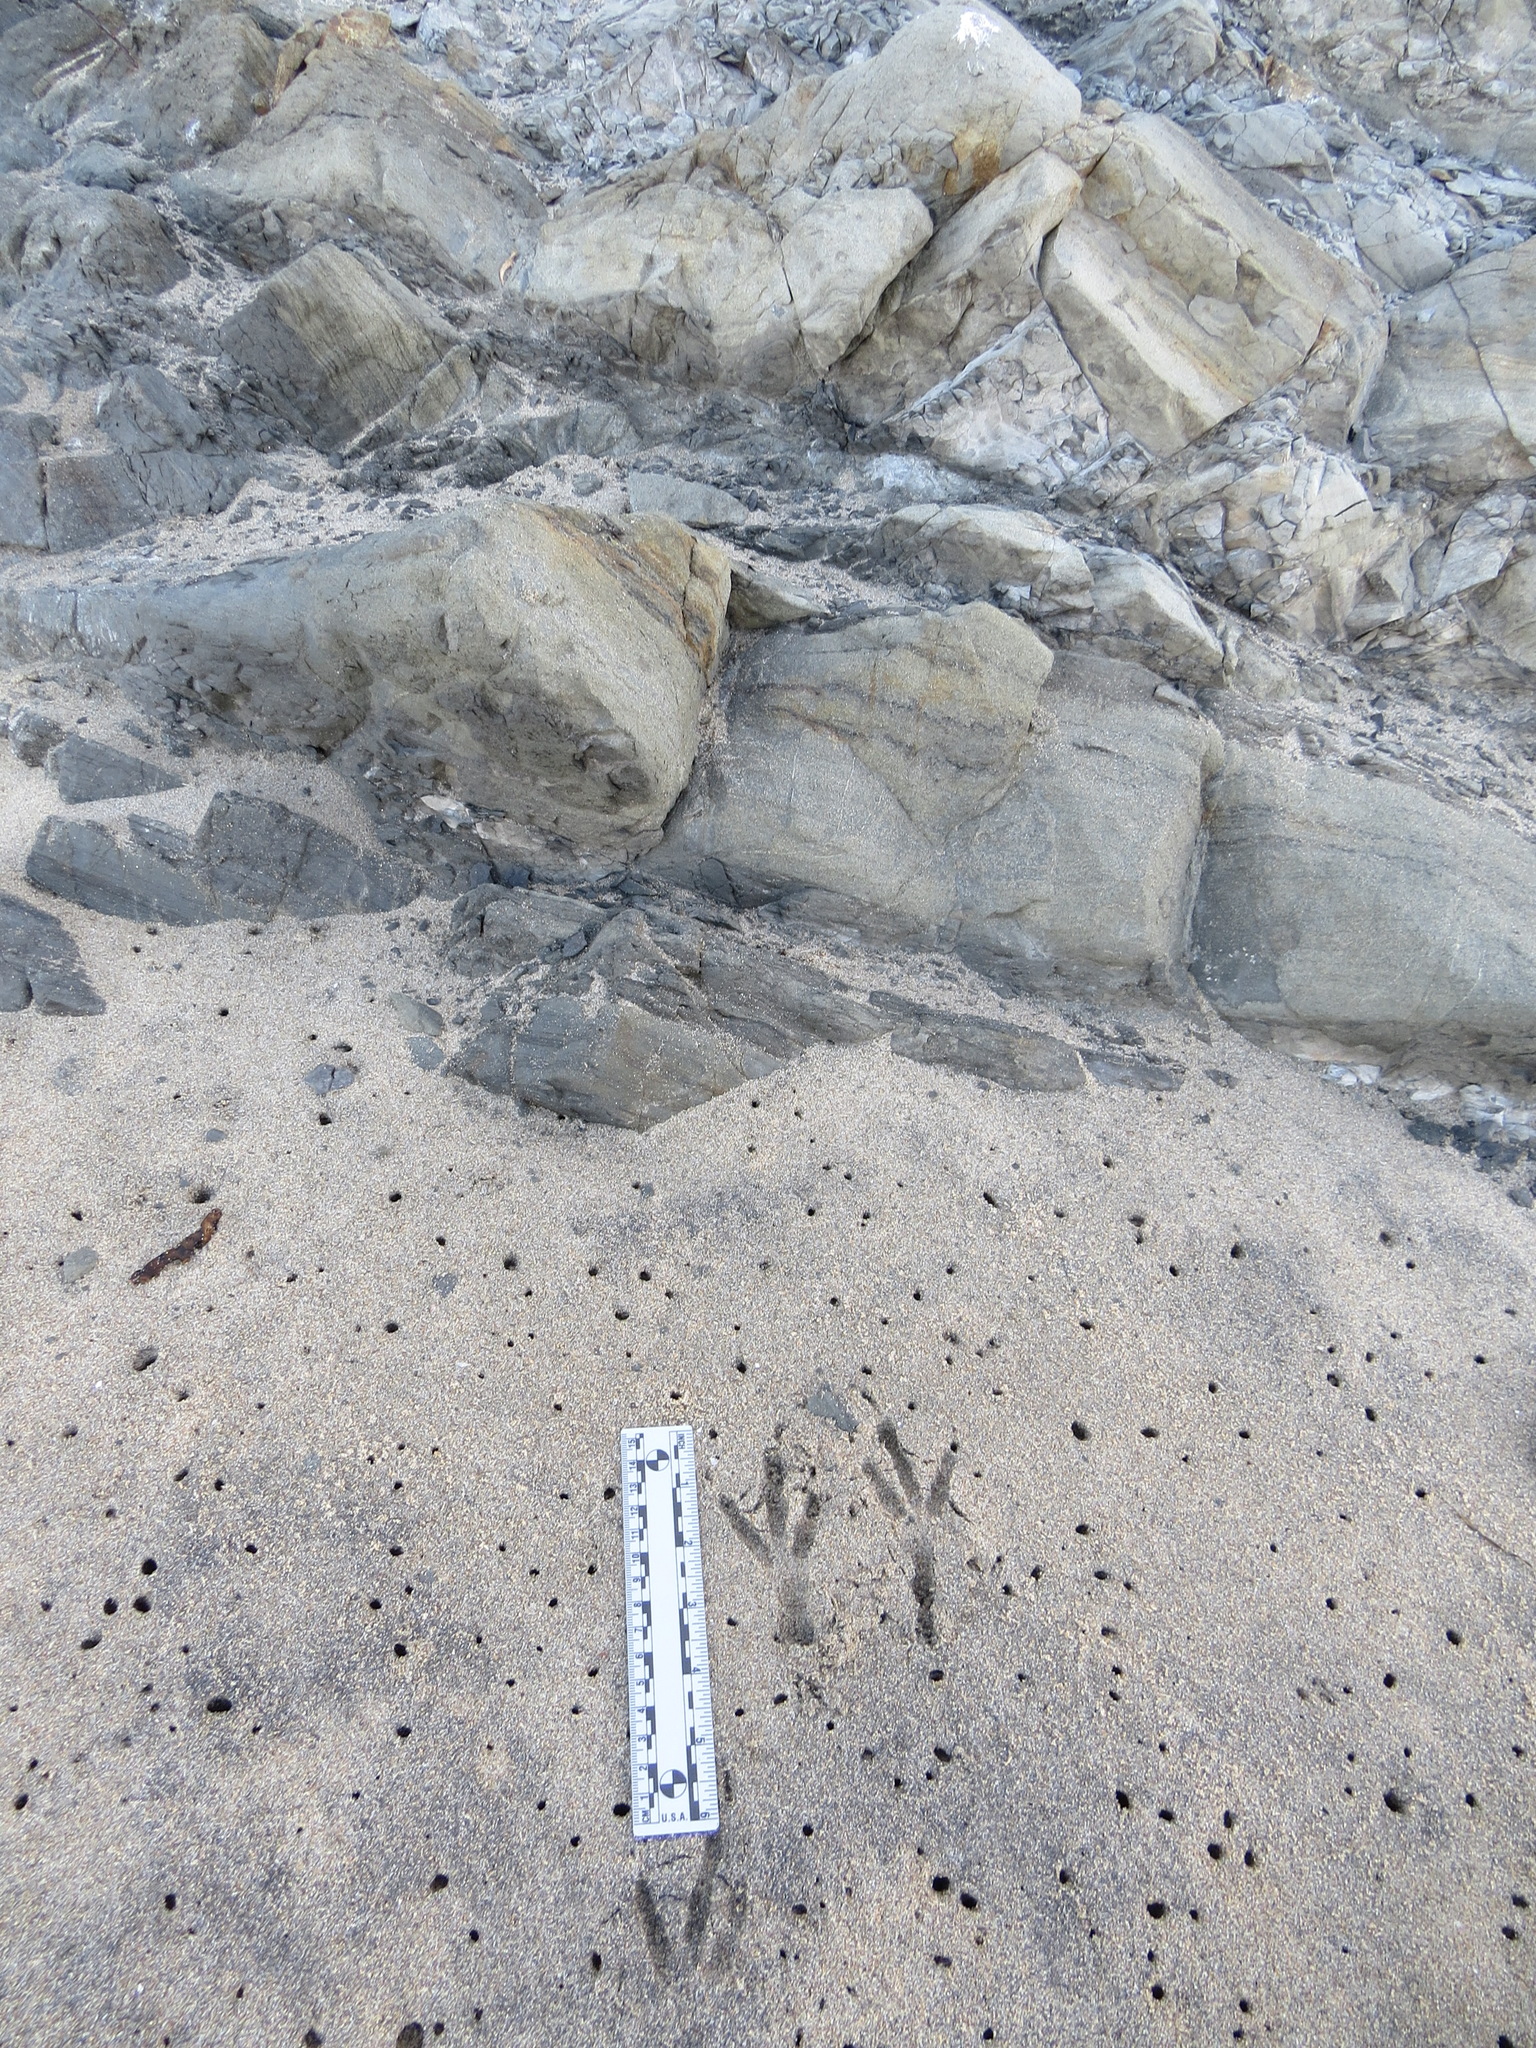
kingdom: Animalia
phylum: Chordata
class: Aves
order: Passeriformes
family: Corvidae
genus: Corvus
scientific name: Corvus corax
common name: Common raven
